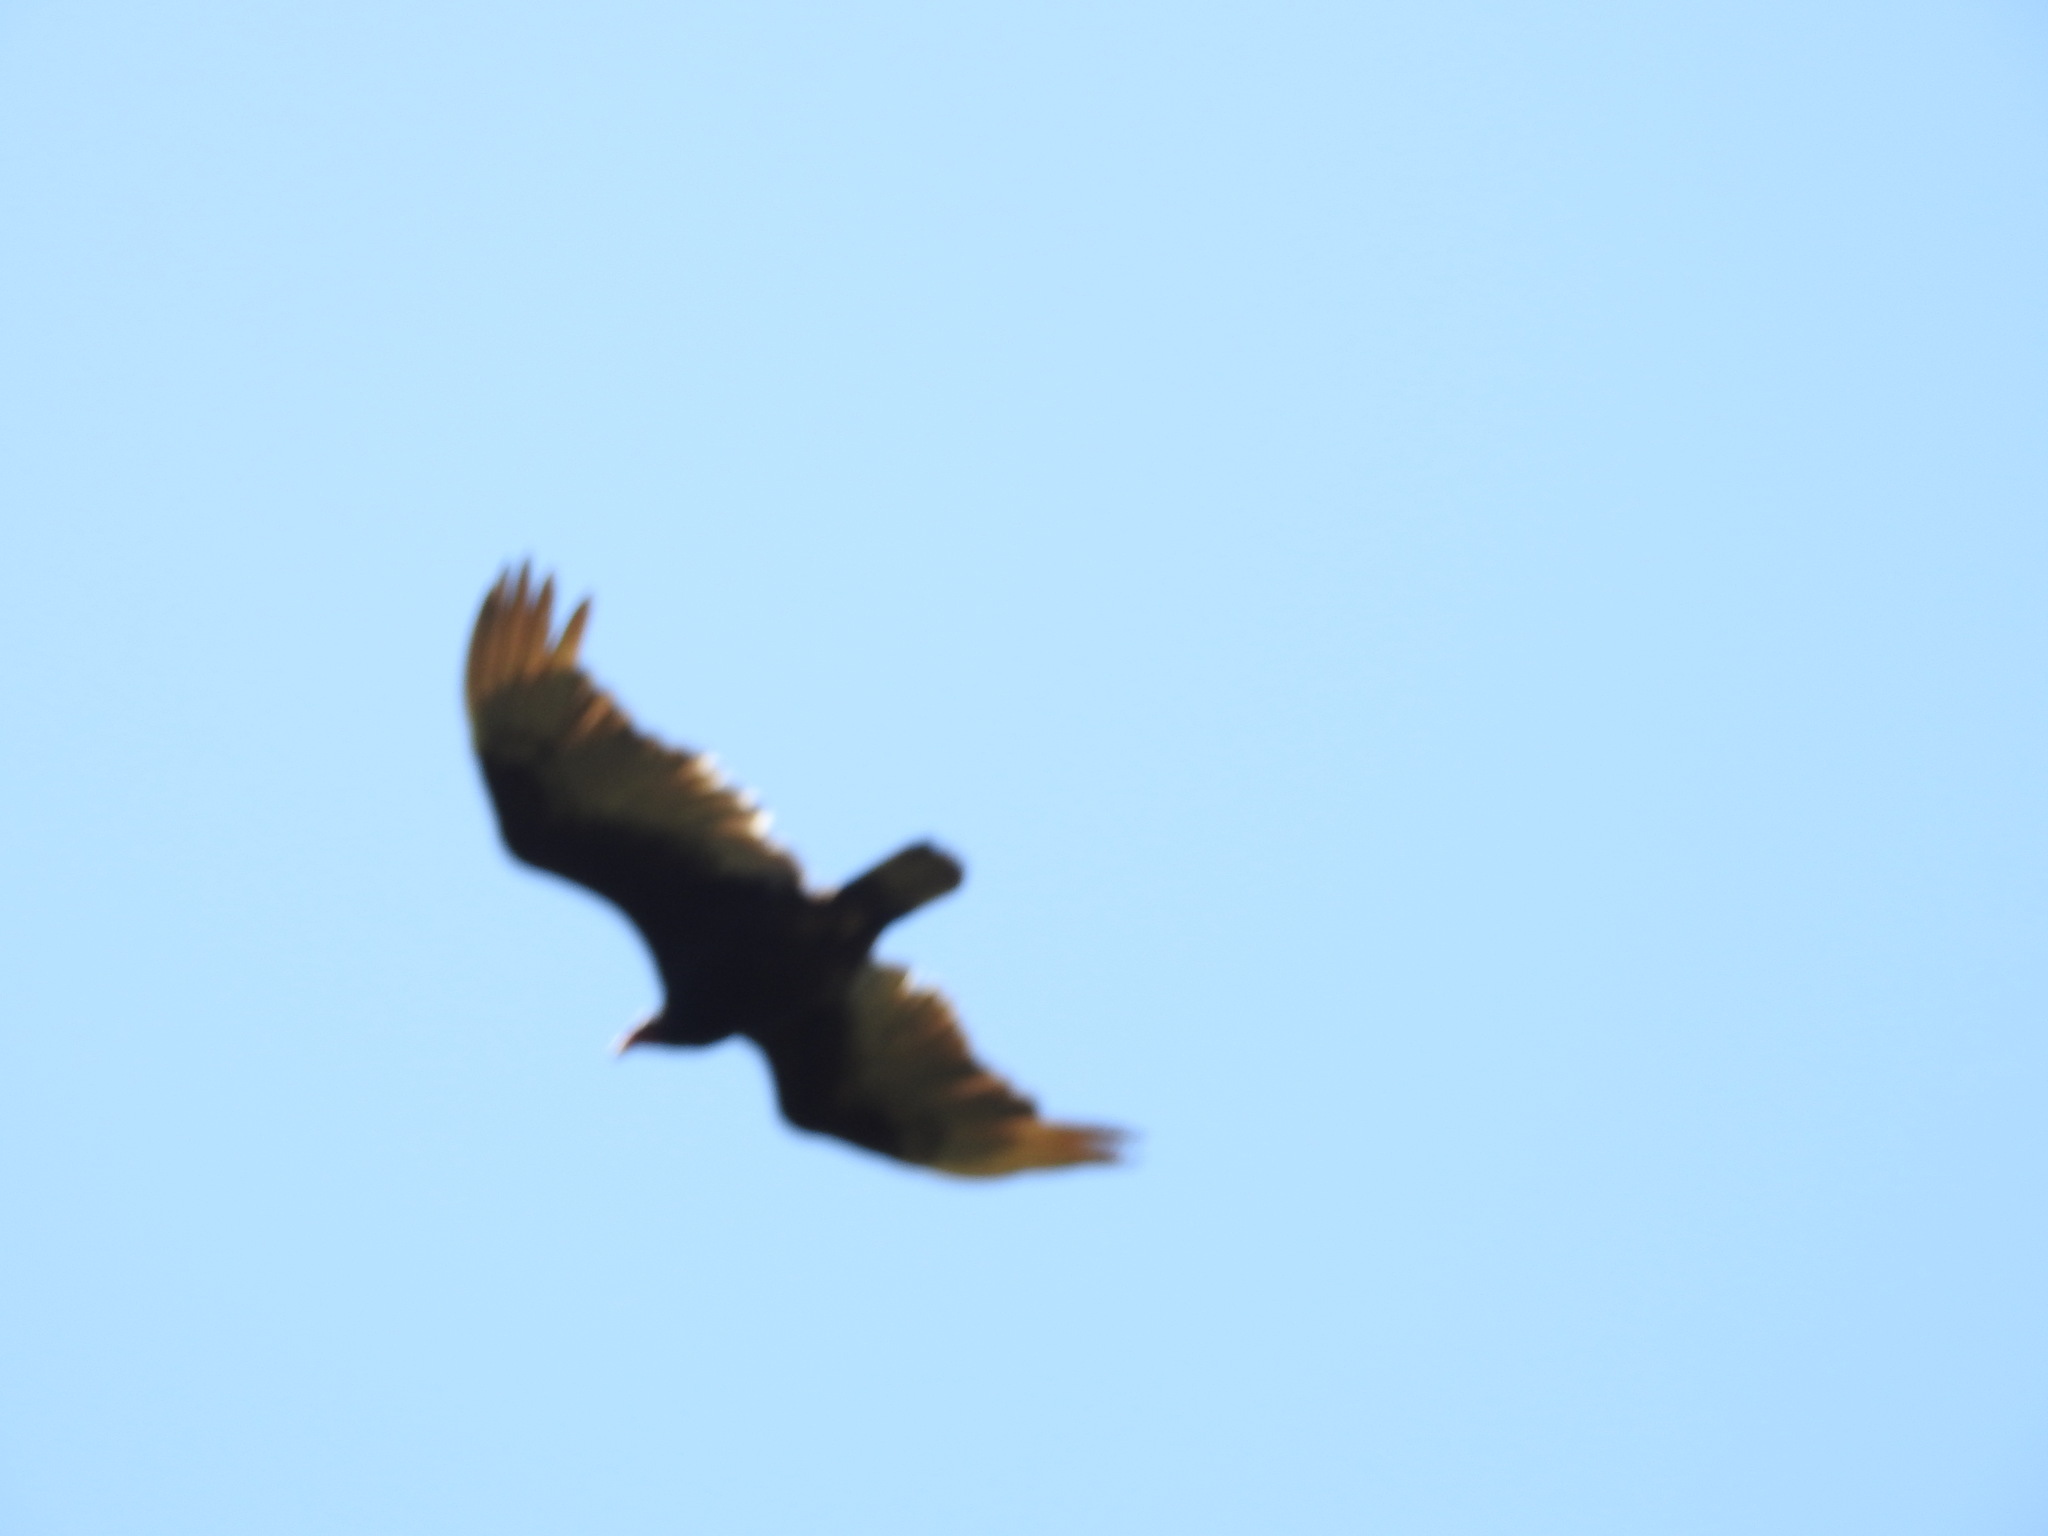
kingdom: Animalia
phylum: Chordata
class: Aves
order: Accipitriformes
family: Cathartidae
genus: Cathartes
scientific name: Cathartes aura
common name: Turkey vulture
